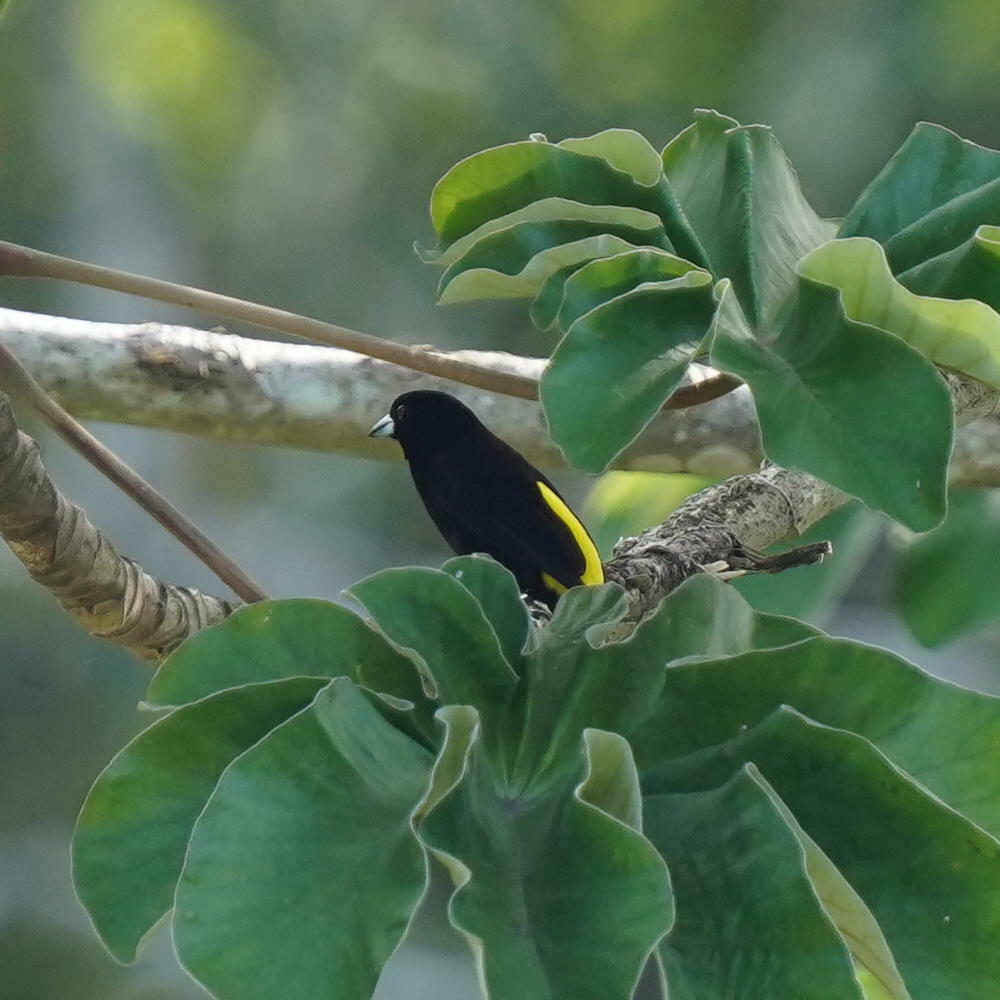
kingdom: Animalia
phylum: Chordata
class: Aves
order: Passeriformes
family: Thraupidae
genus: Ramphocelus
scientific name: Ramphocelus icteronotus
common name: Lemon-rumped tanager
